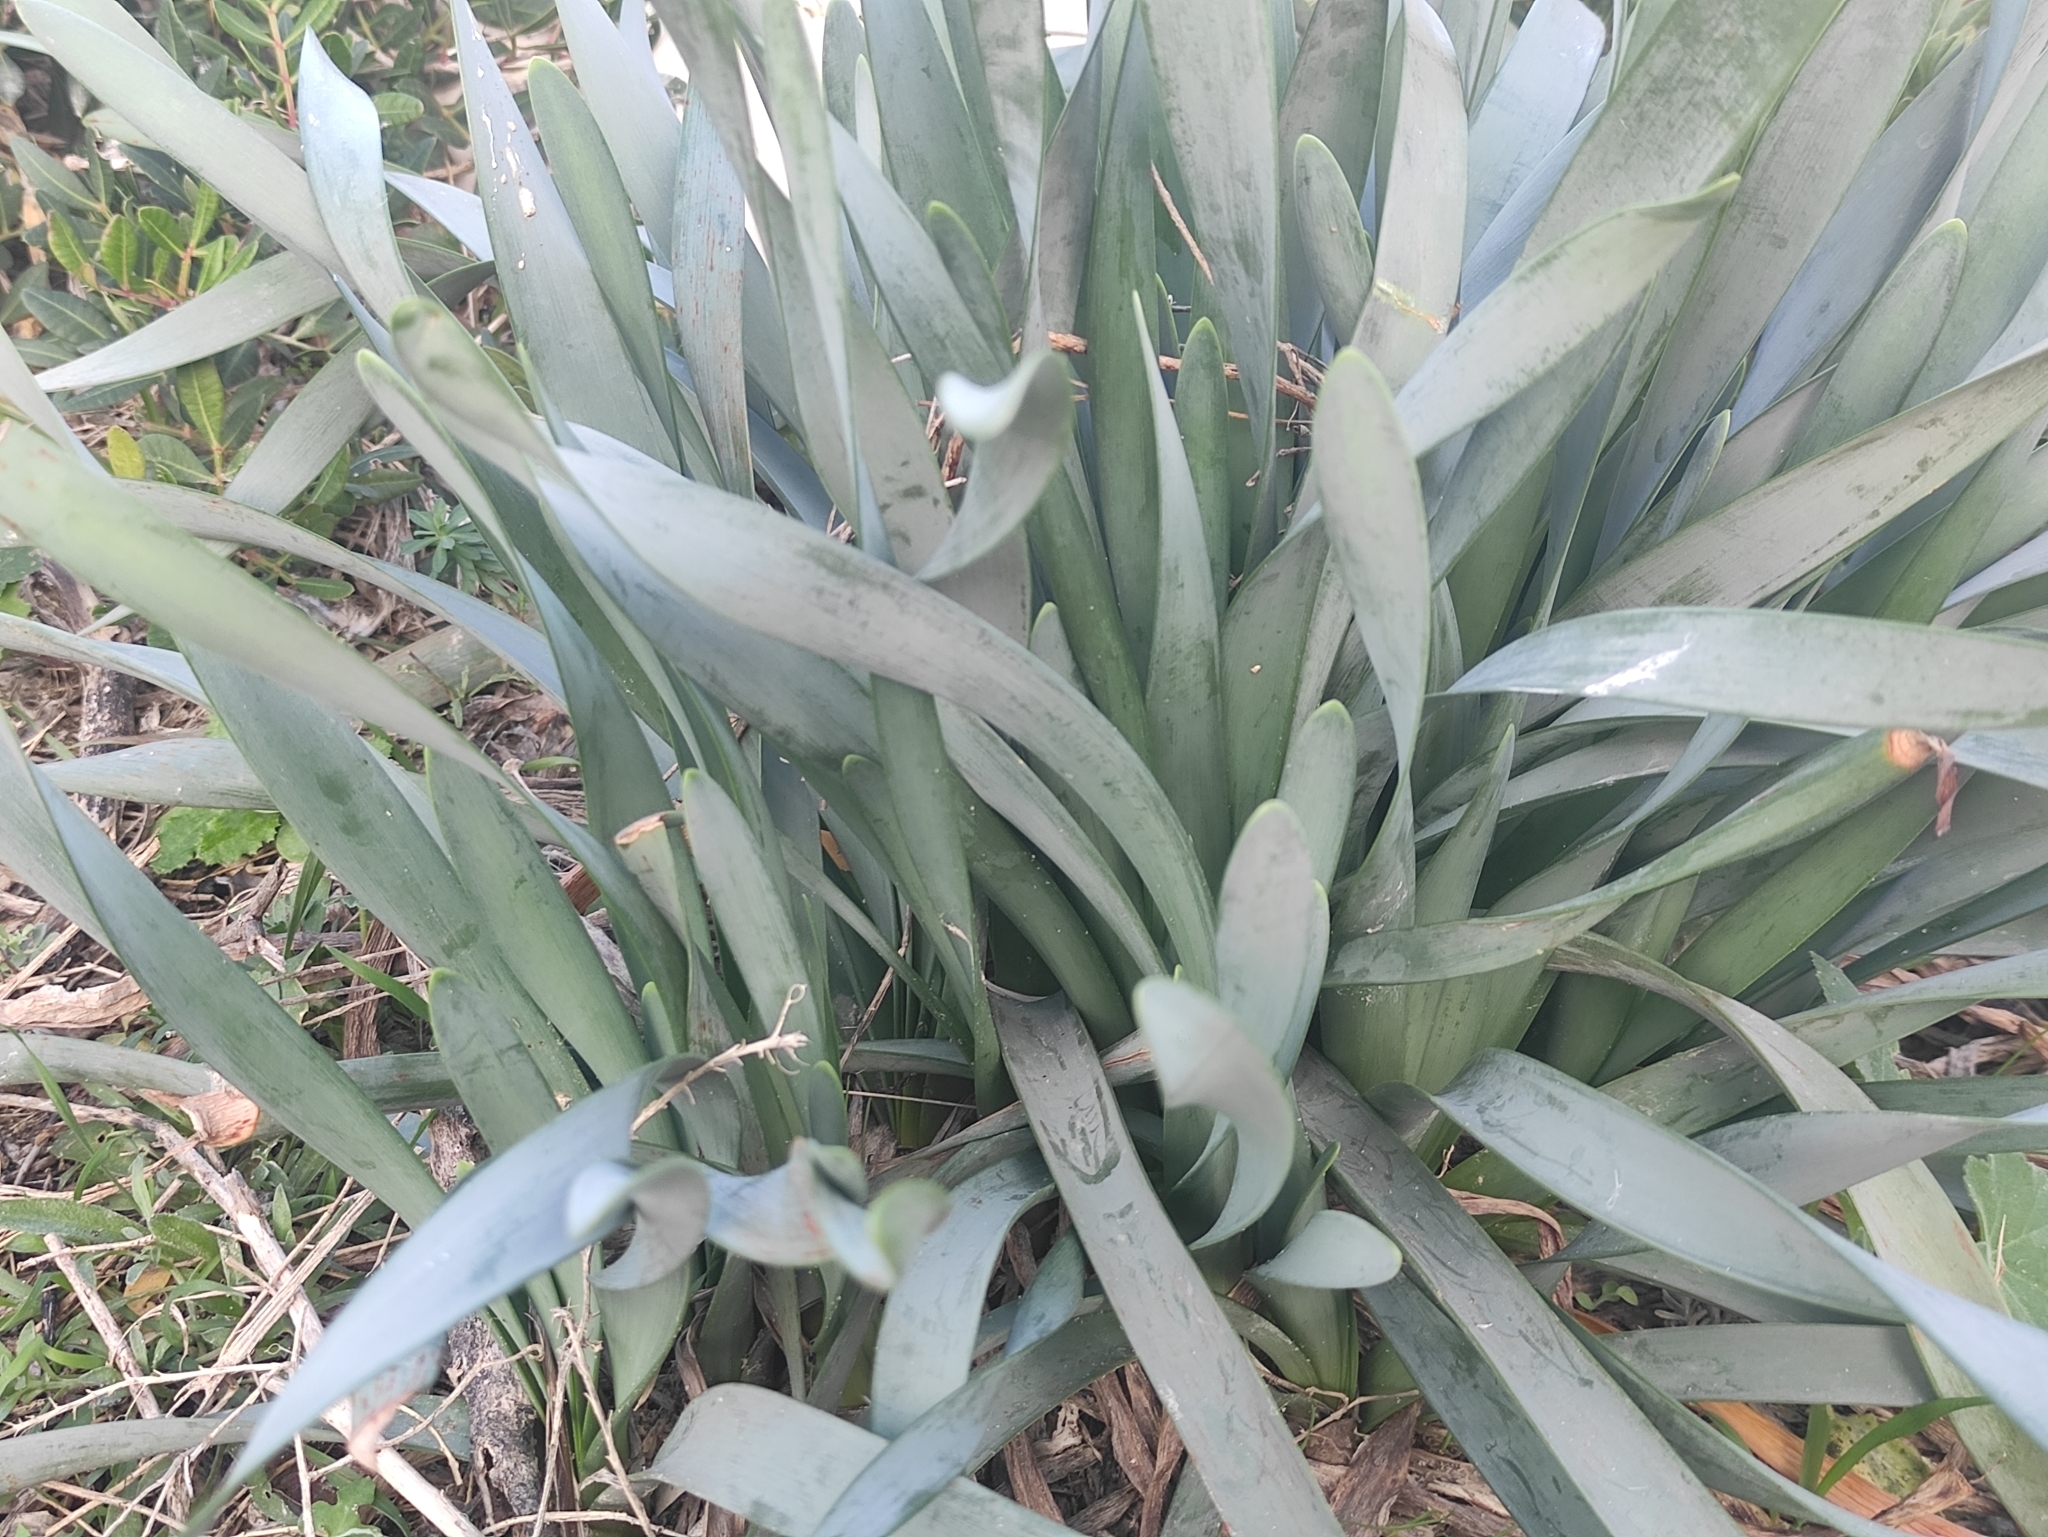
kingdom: Plantae
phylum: Tracheophyta
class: Liliopsida
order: Asparagales
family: Amaryllidaceae
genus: Pancratium
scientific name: Pancratium maritimum
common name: Sea-daffodil
